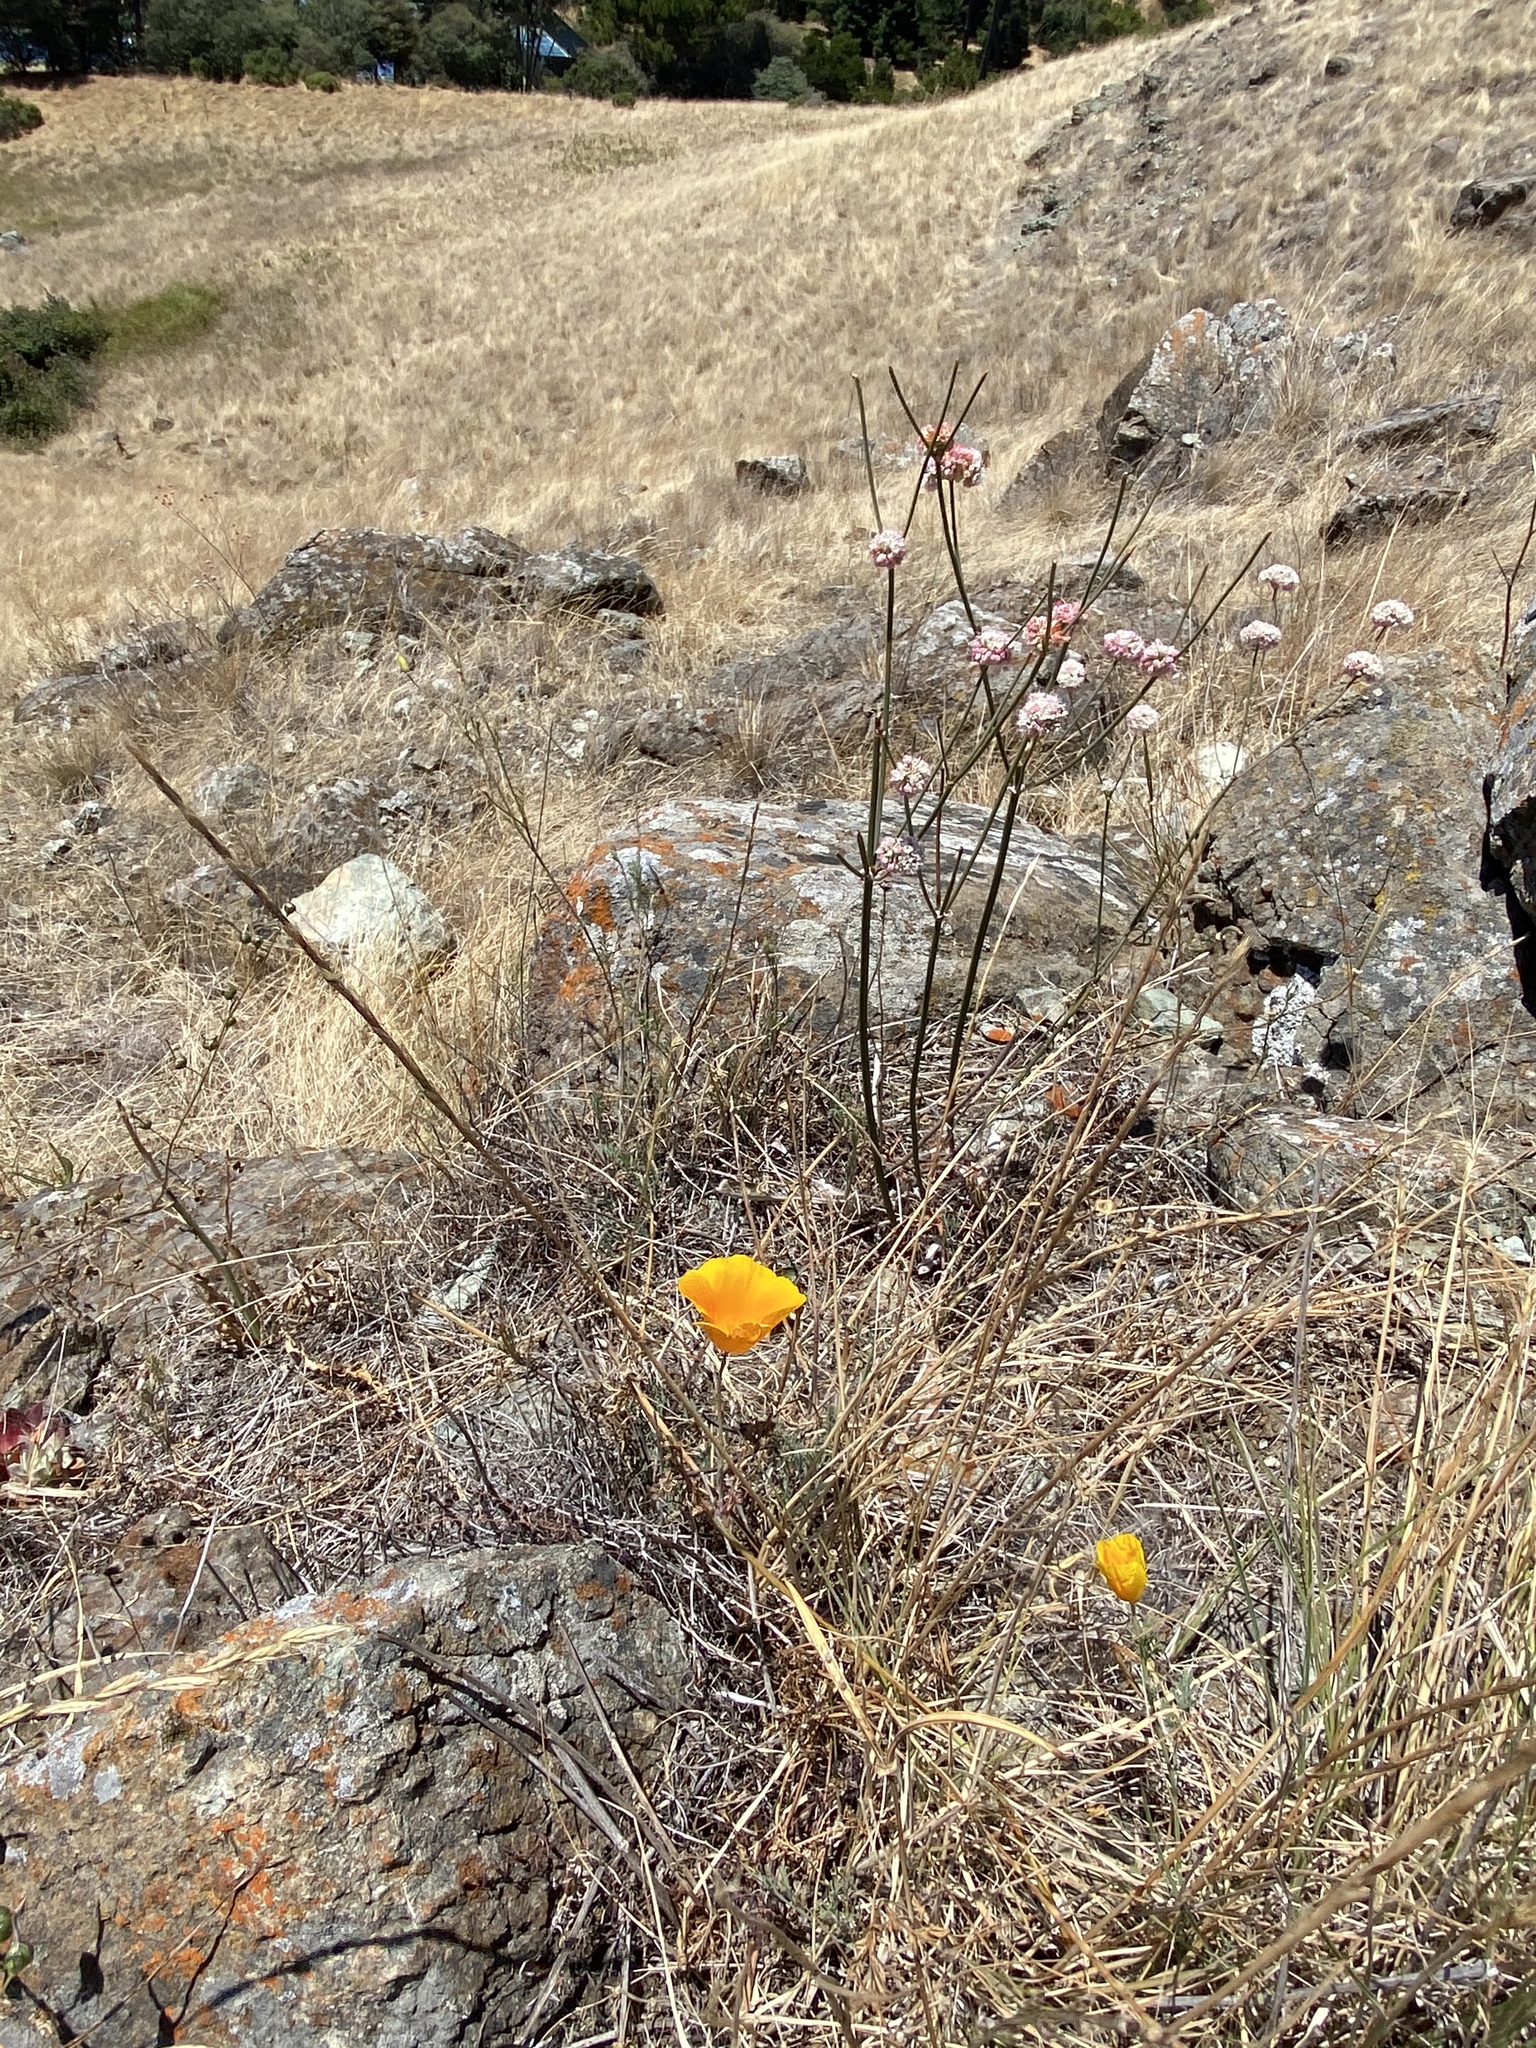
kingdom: Plantae
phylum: Tracheophyta
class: Magnoliopsida
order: Ranunculales
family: Papaveraceae
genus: Eschscholzia
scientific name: Eschscholzia californica
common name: California poppy
